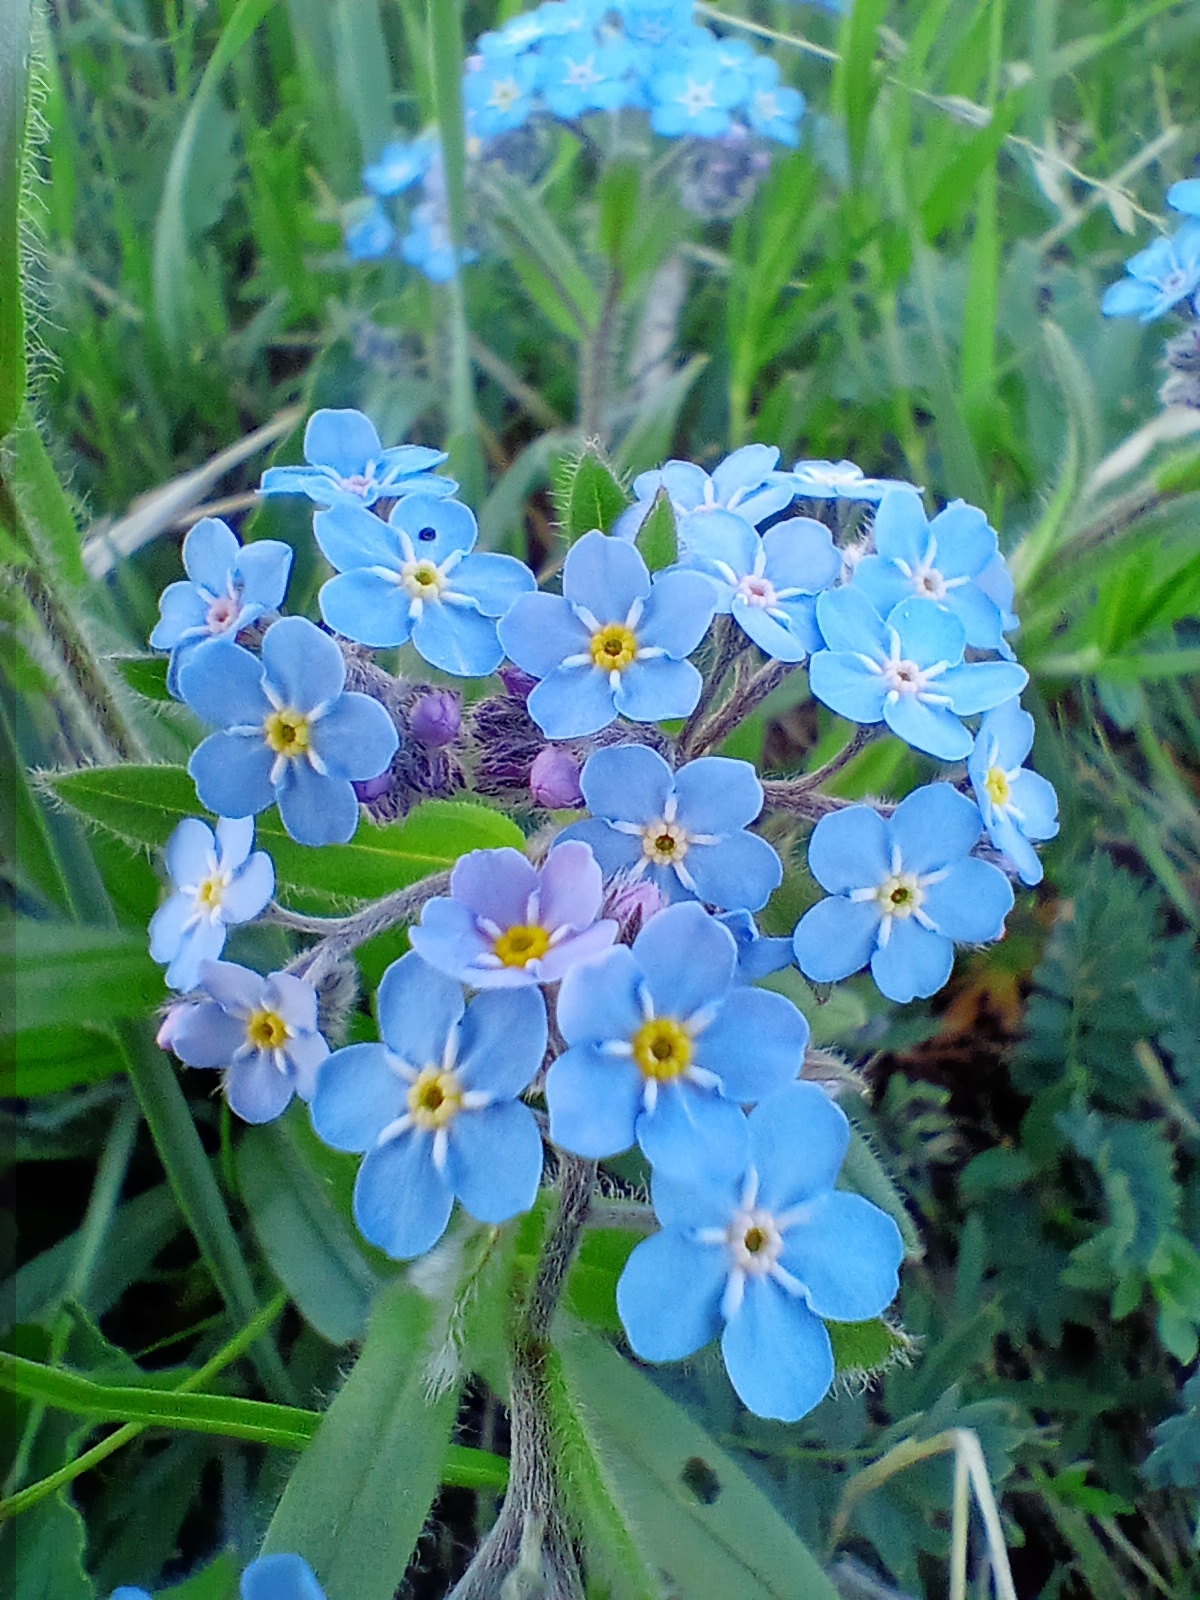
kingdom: Plantae
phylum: Tracheophyta
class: Magnoliopsida
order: Boraginales
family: Boraginaceae
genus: Myosotis
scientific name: Myosotis imitata
